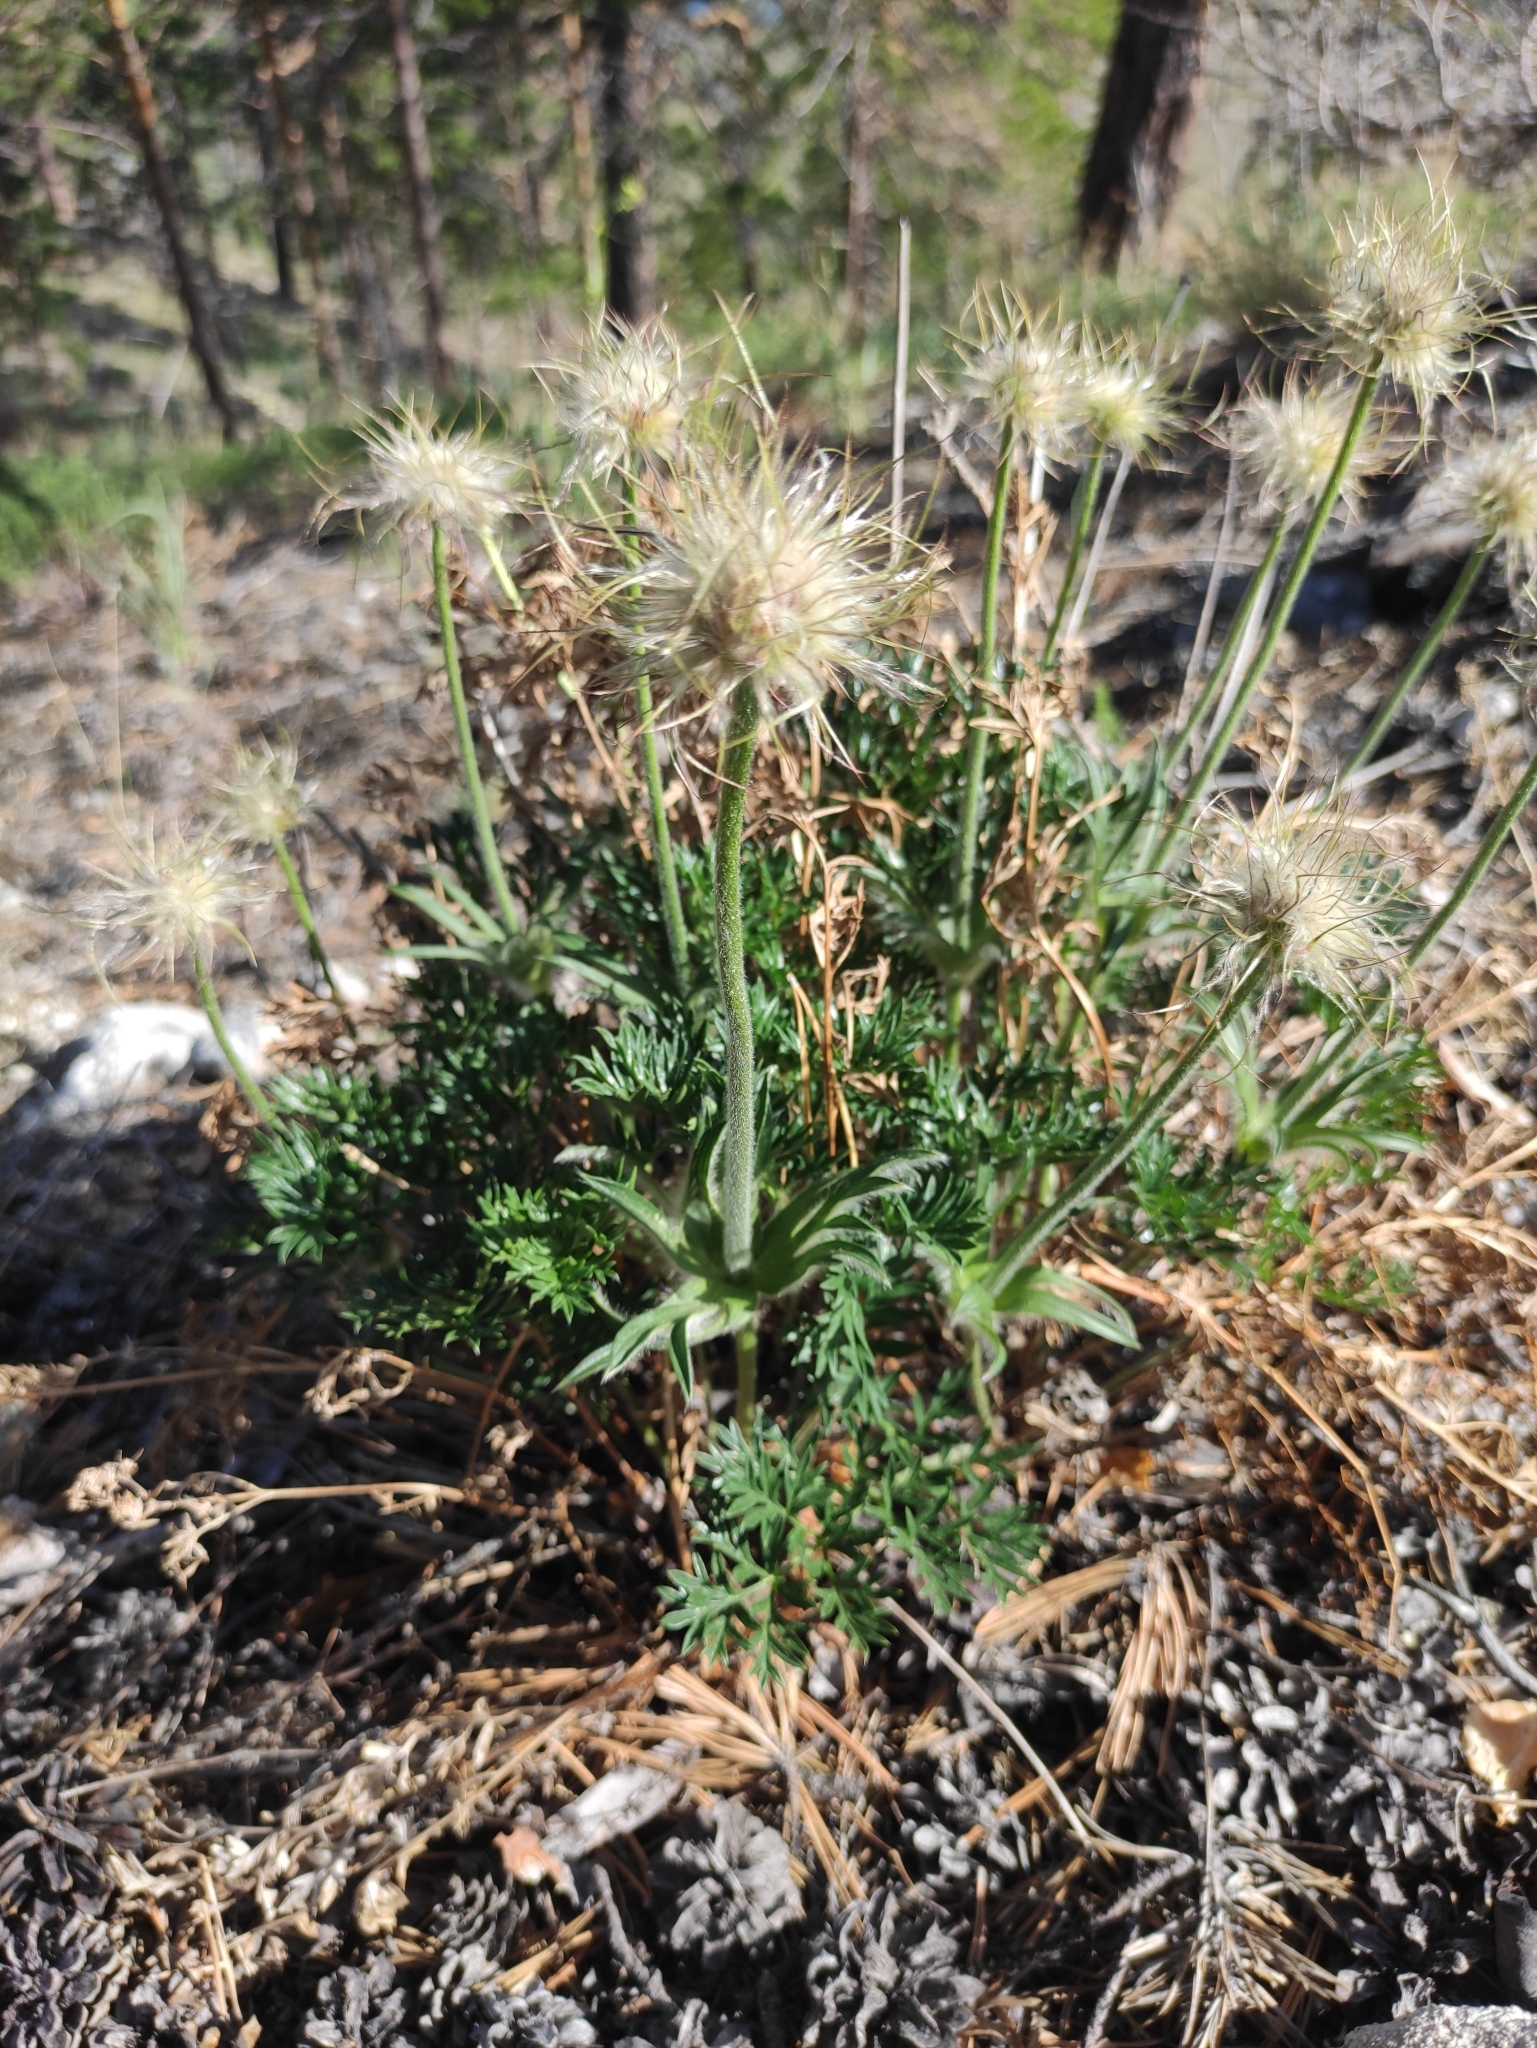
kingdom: Plantae
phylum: Tracheophyta
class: Magnoliopsida
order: Ranunculales
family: Ranunculaceae
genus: Pulsatilla
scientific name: Pulsatilla tenuiloba
